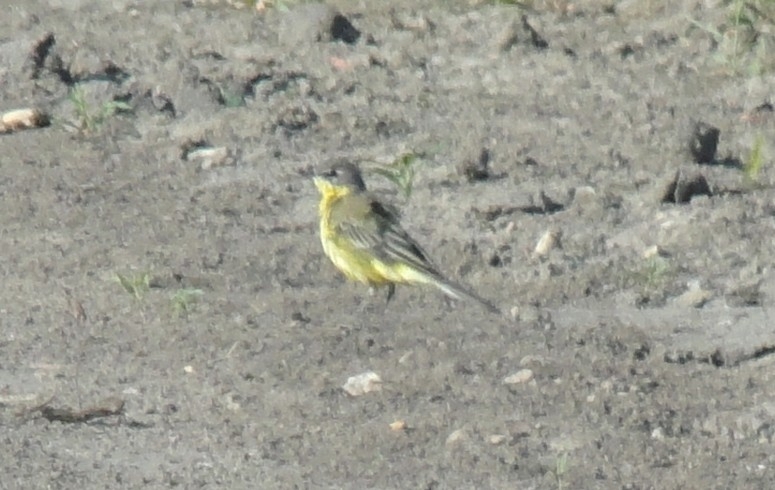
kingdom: Animalia
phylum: Chordata
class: Aves
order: Passeriformes
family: Motacillidae
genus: Motacilla
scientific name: Motacilla flava
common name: Western yellow wagtail
